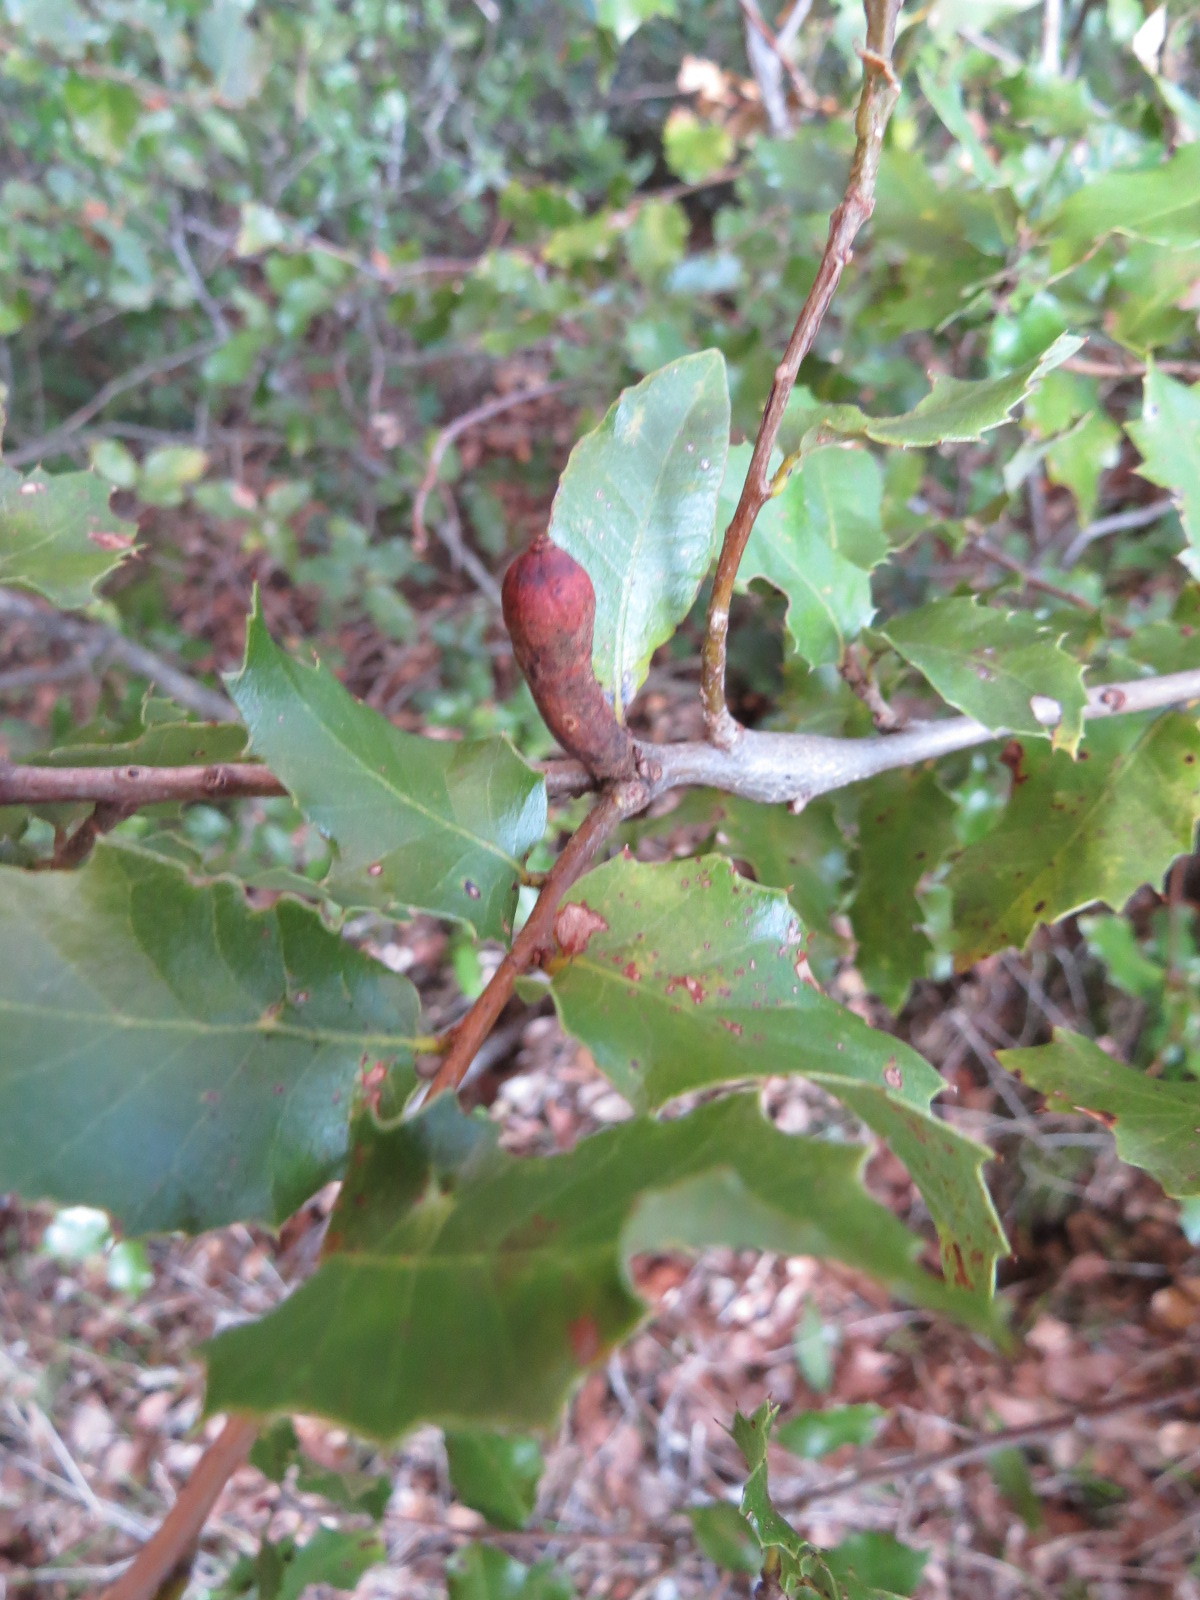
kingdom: Animalia
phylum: Arthropoda
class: Insecta
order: Hymenoptera
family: Cynipidae
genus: Heteroecus
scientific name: Heteroecus
